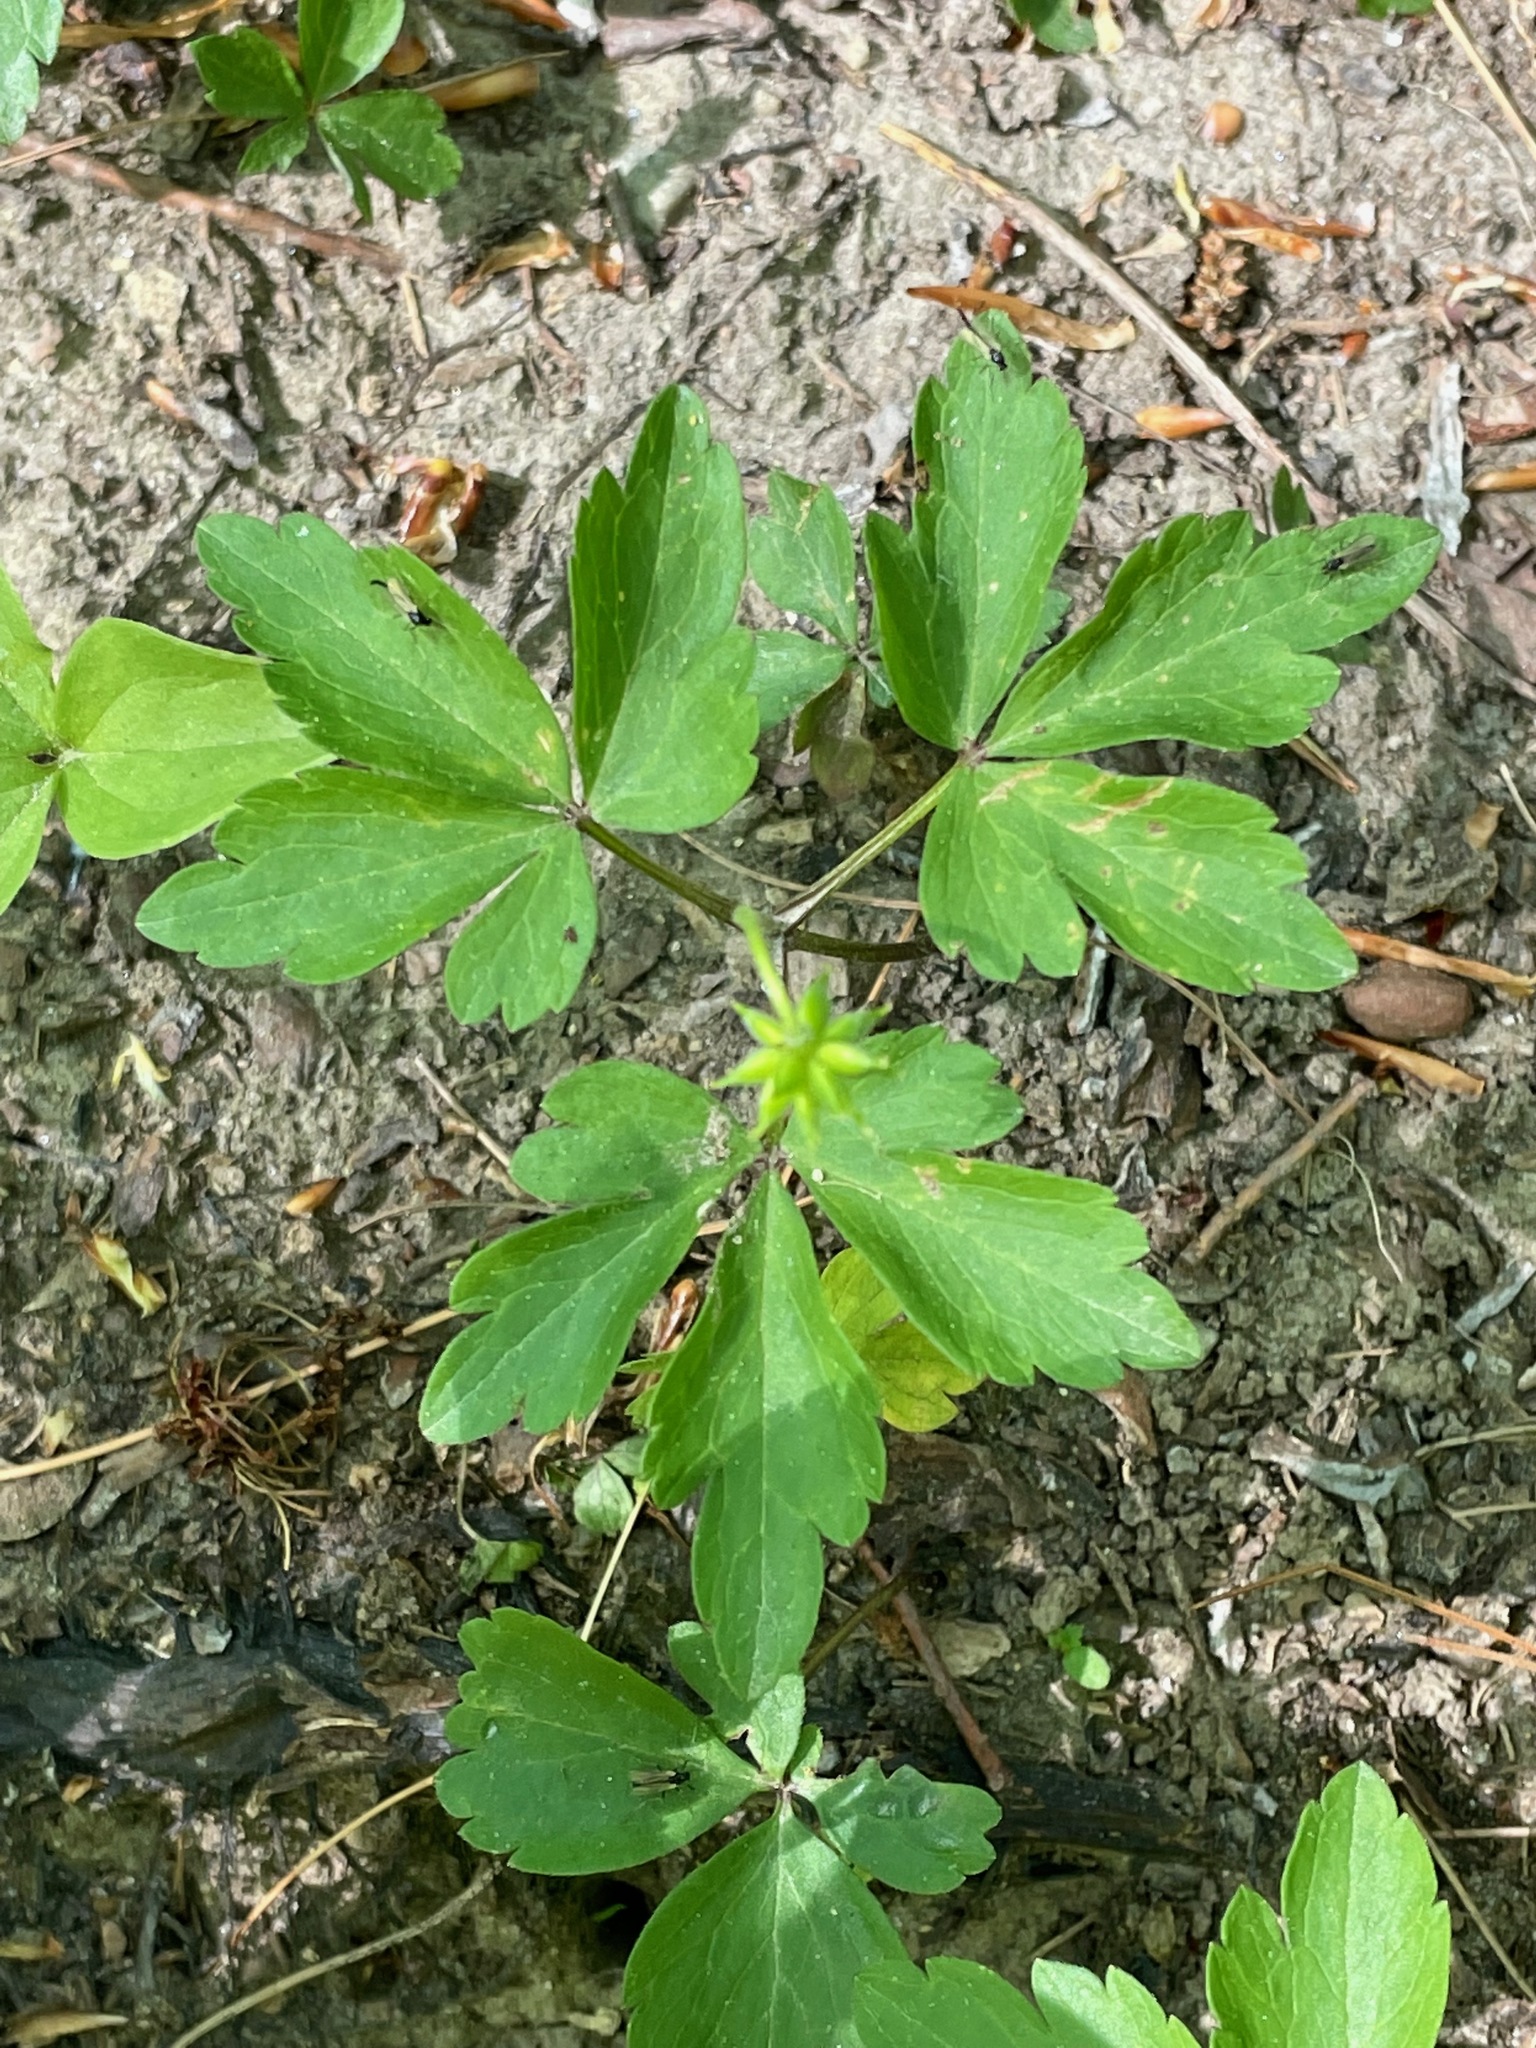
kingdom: Plantae
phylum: Tracheophyta
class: Magnoliopsida
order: Ranunculales
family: Ranunculaceae
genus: Anemone
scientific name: Anemone quinquefolia
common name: Wood anemone
